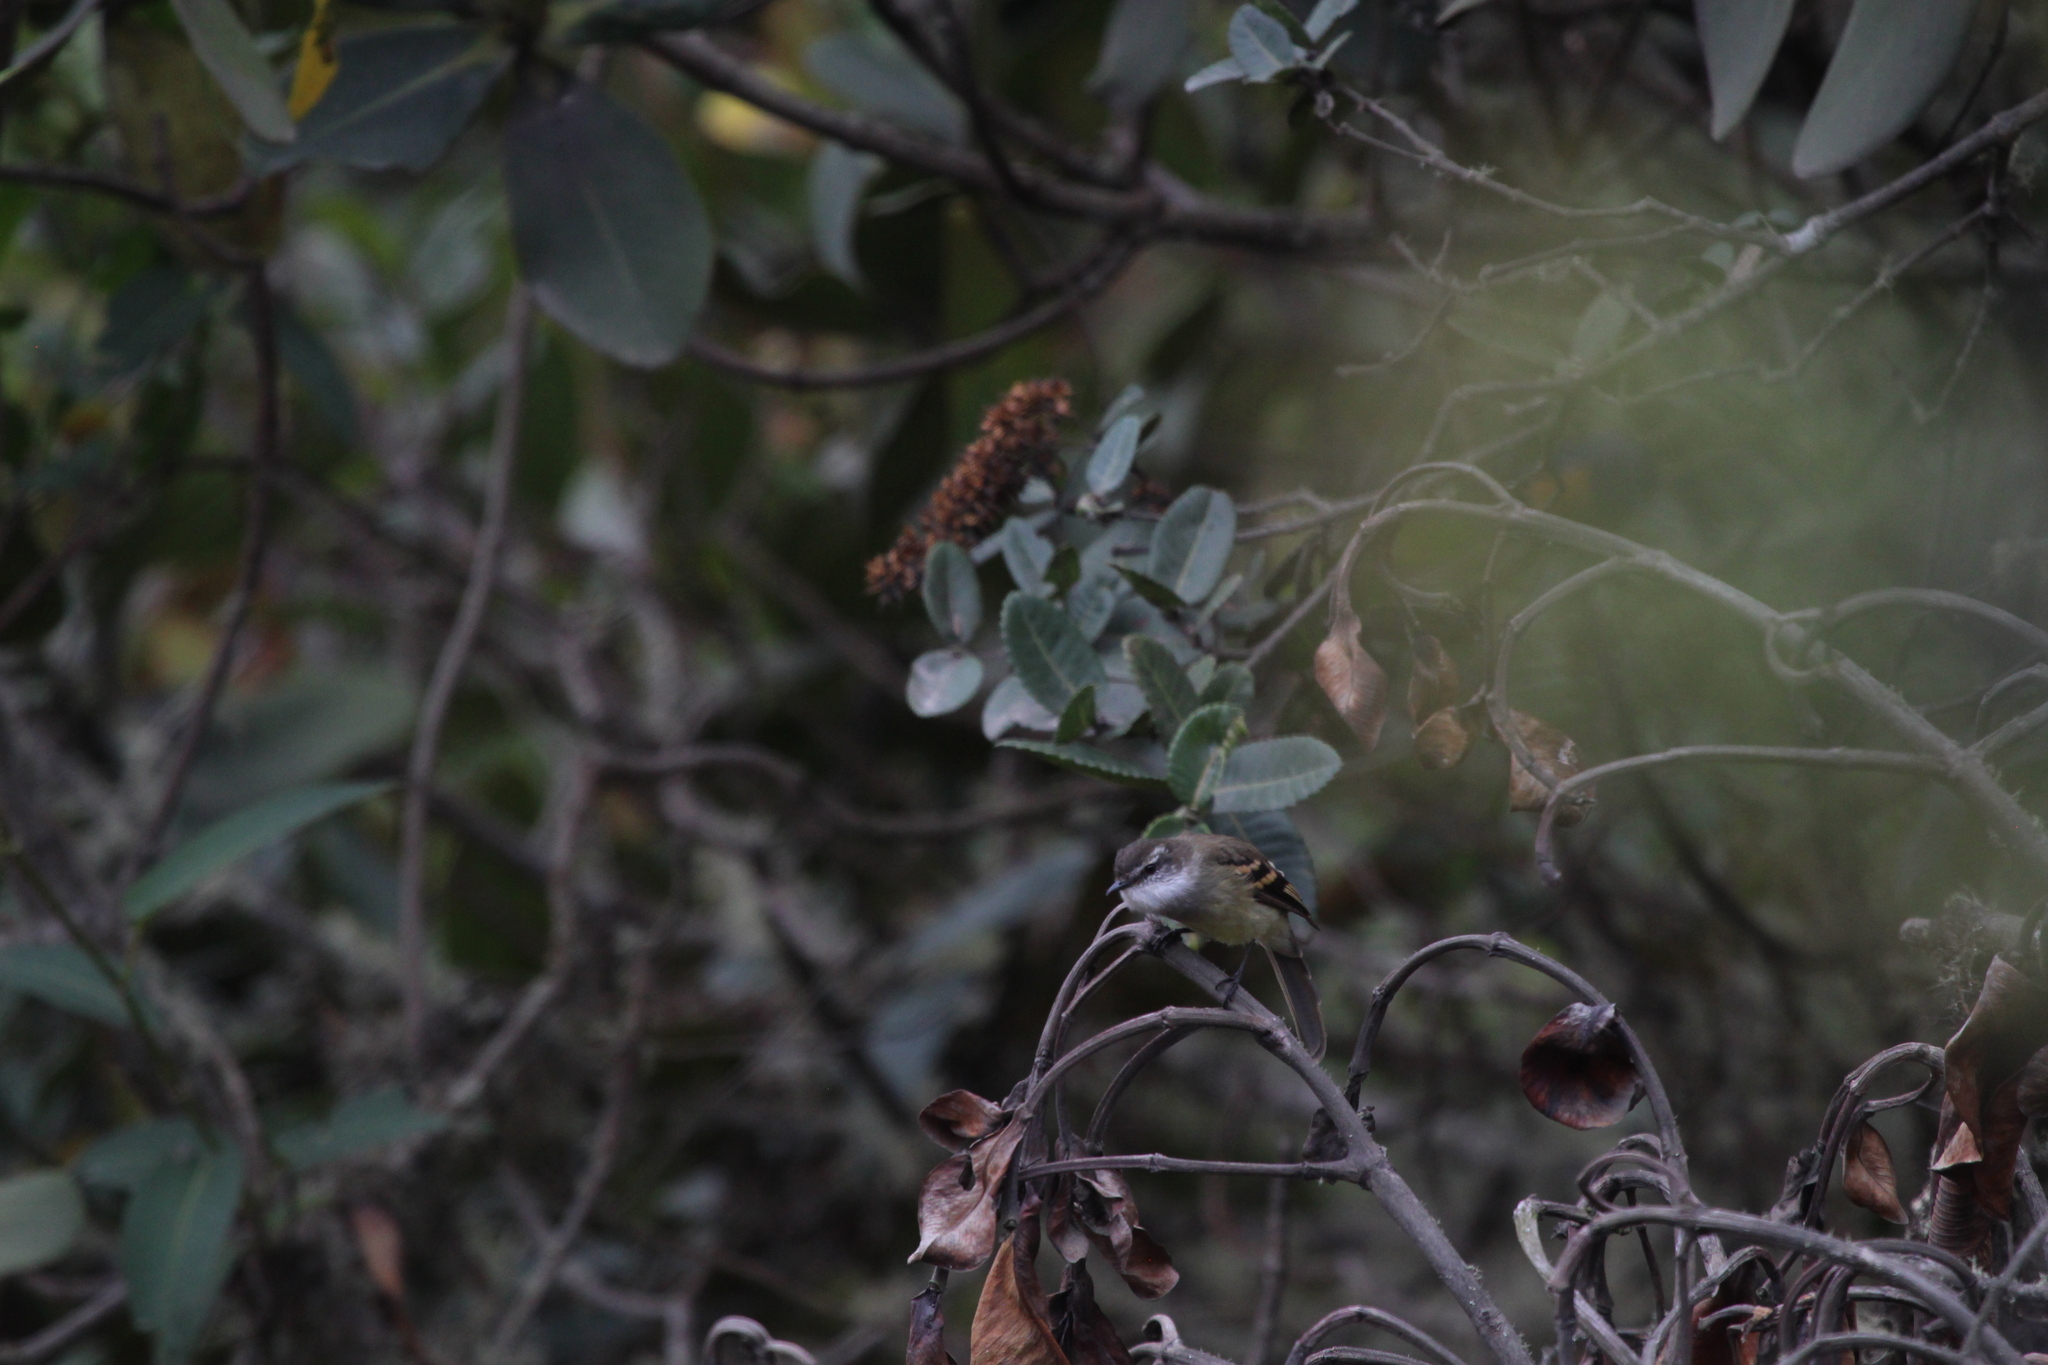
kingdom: Animalia
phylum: Chordata
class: Aves
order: Passeriformes
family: Tyrannidae
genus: Mecocerculus
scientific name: Mecocerculus leucophrys
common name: White-throated tyrannulet
